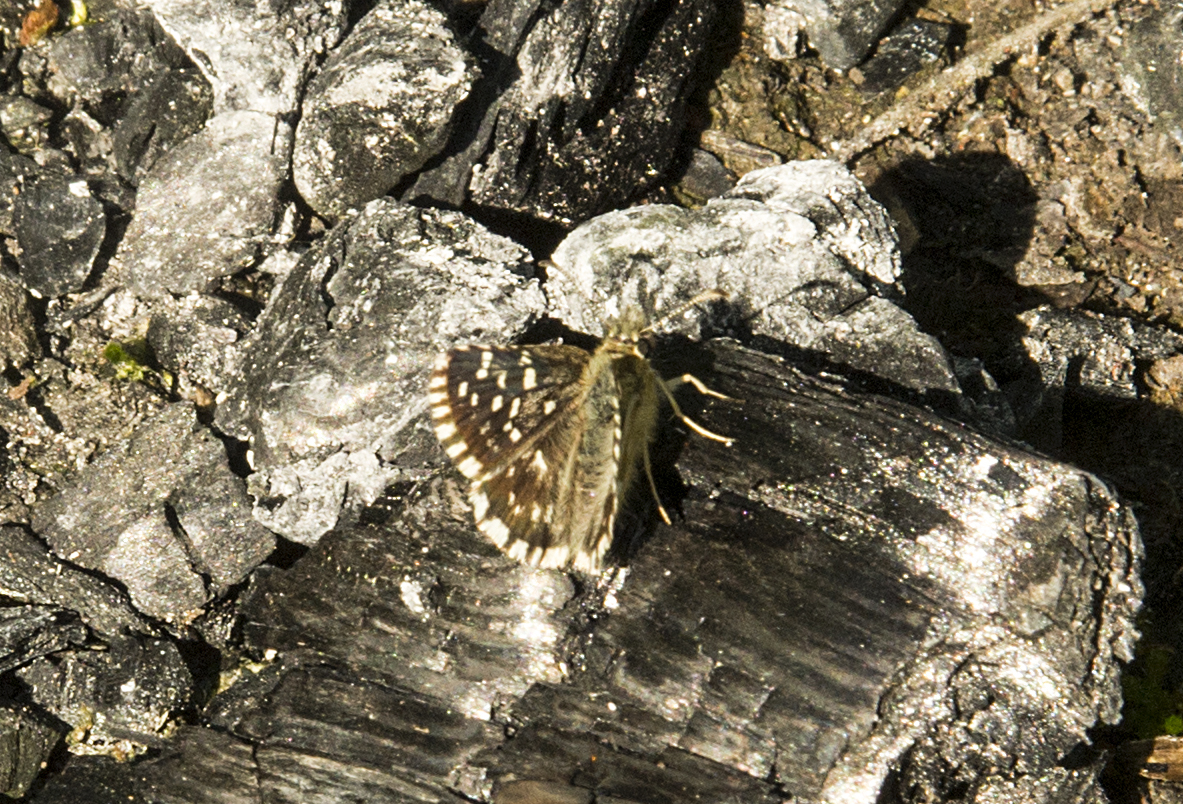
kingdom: Animalia
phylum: Arthropoda
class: Insecta
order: Lepidoptera
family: Hesperiidae
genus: Pyrgus
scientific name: Pyrgus malvae
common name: Grizzled skipper
